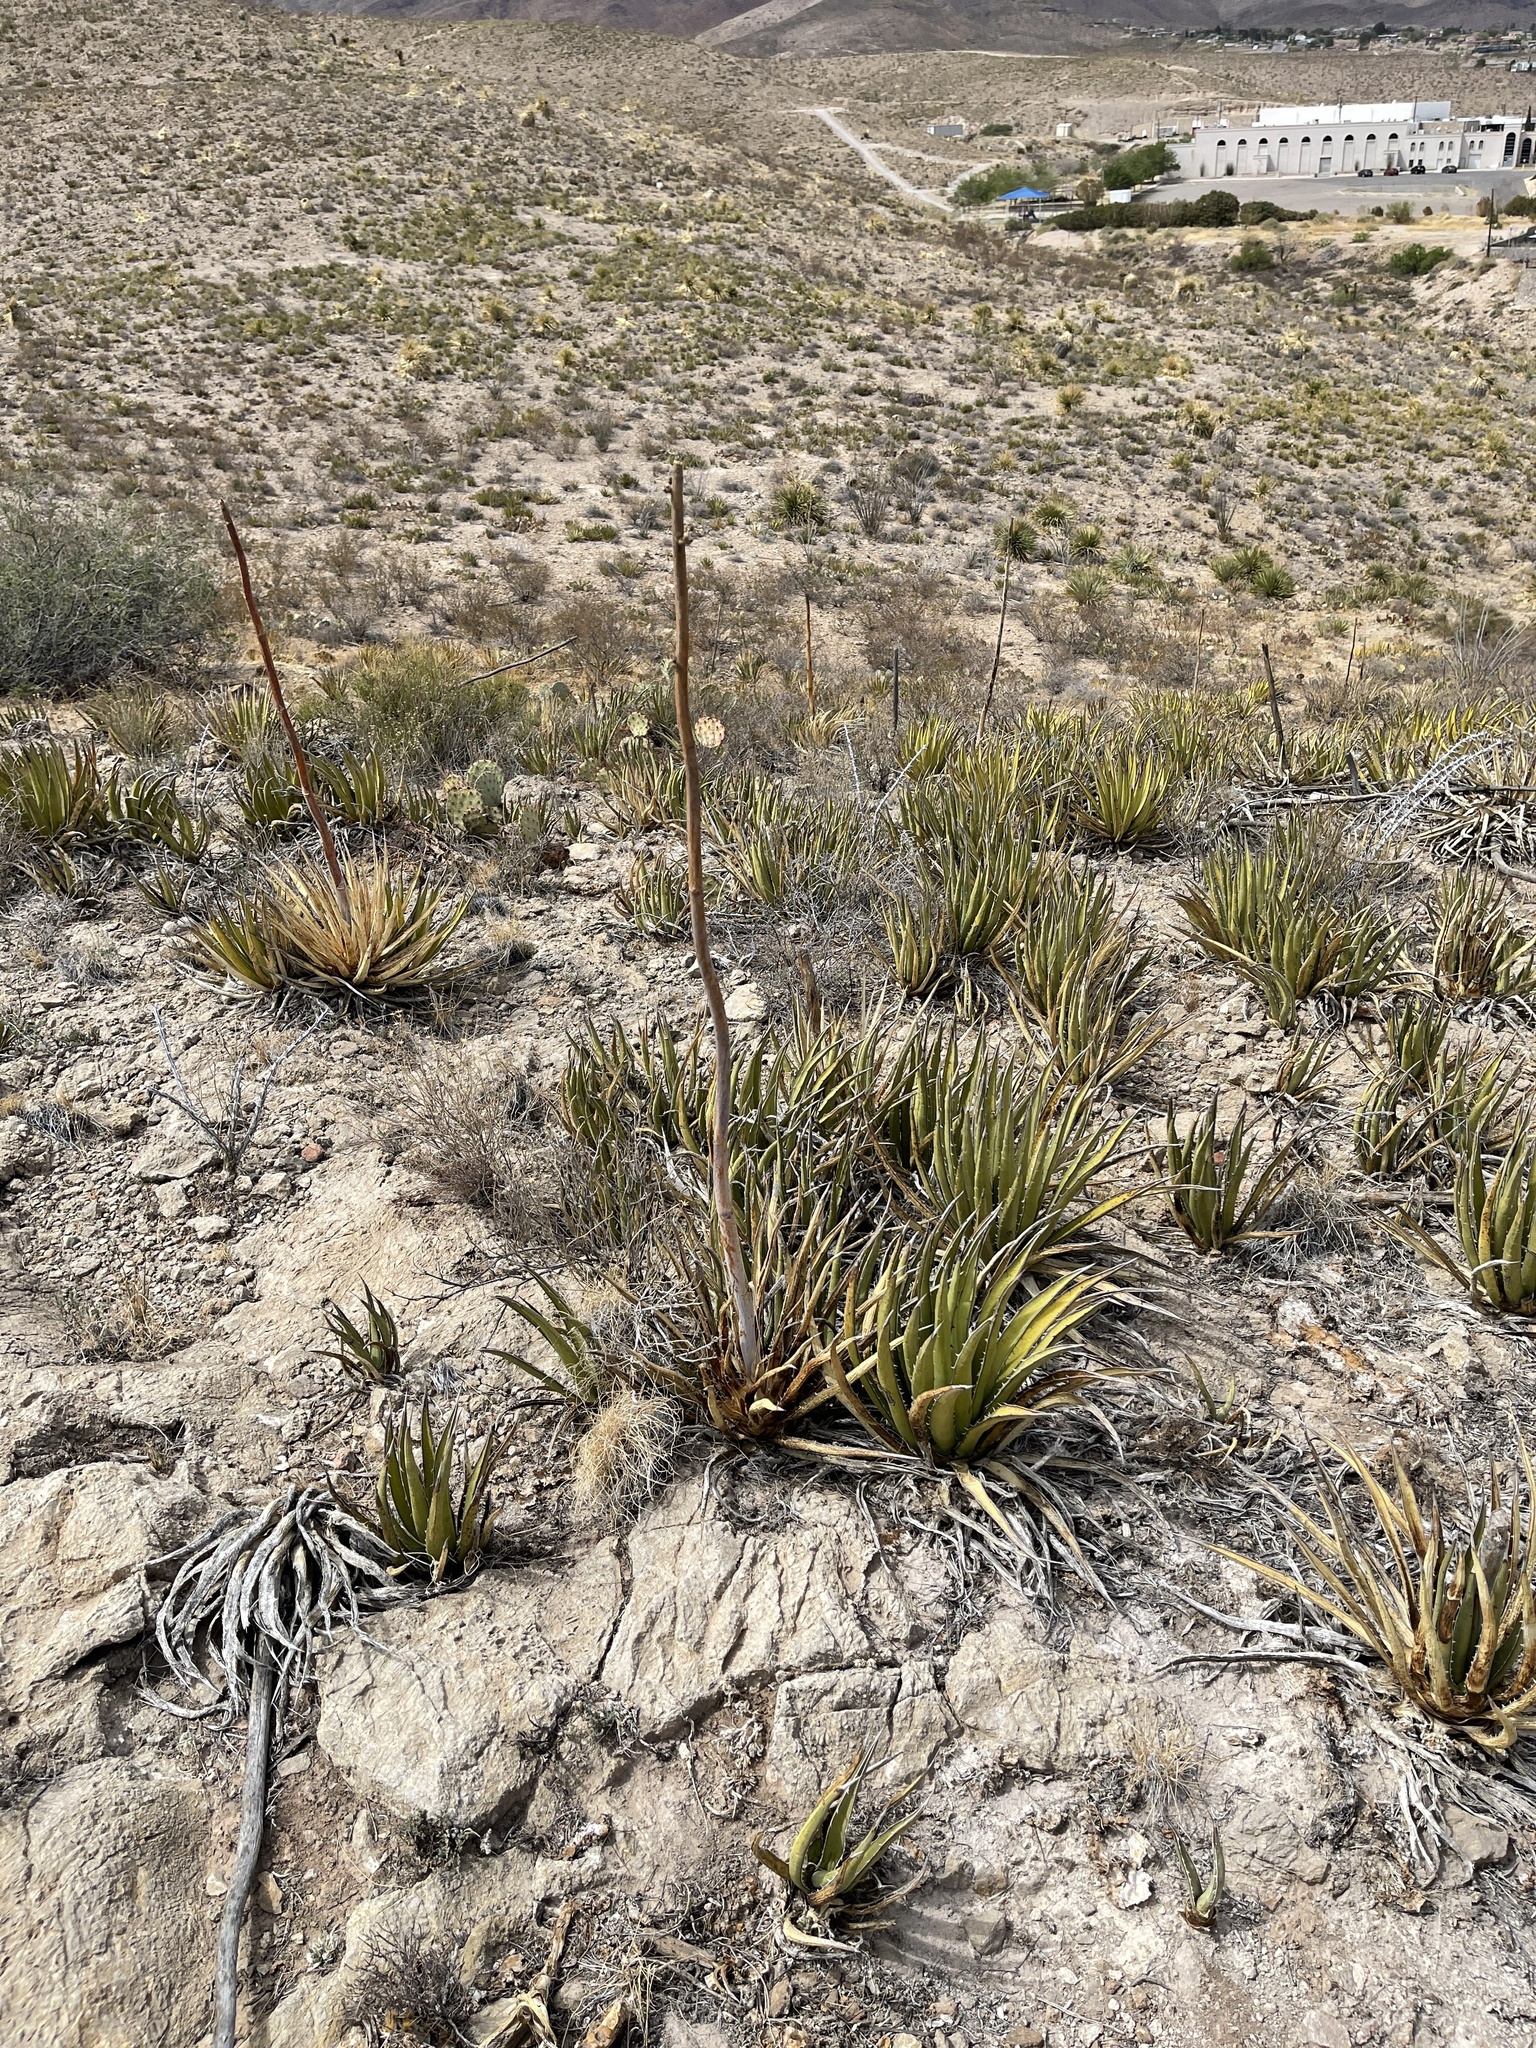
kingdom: Plantae
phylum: Tracheophyta
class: Liliopsida
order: Asparagales
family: Asparagaceae
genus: Agave
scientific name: Agave lechuguilla
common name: Lecheguilla agave
